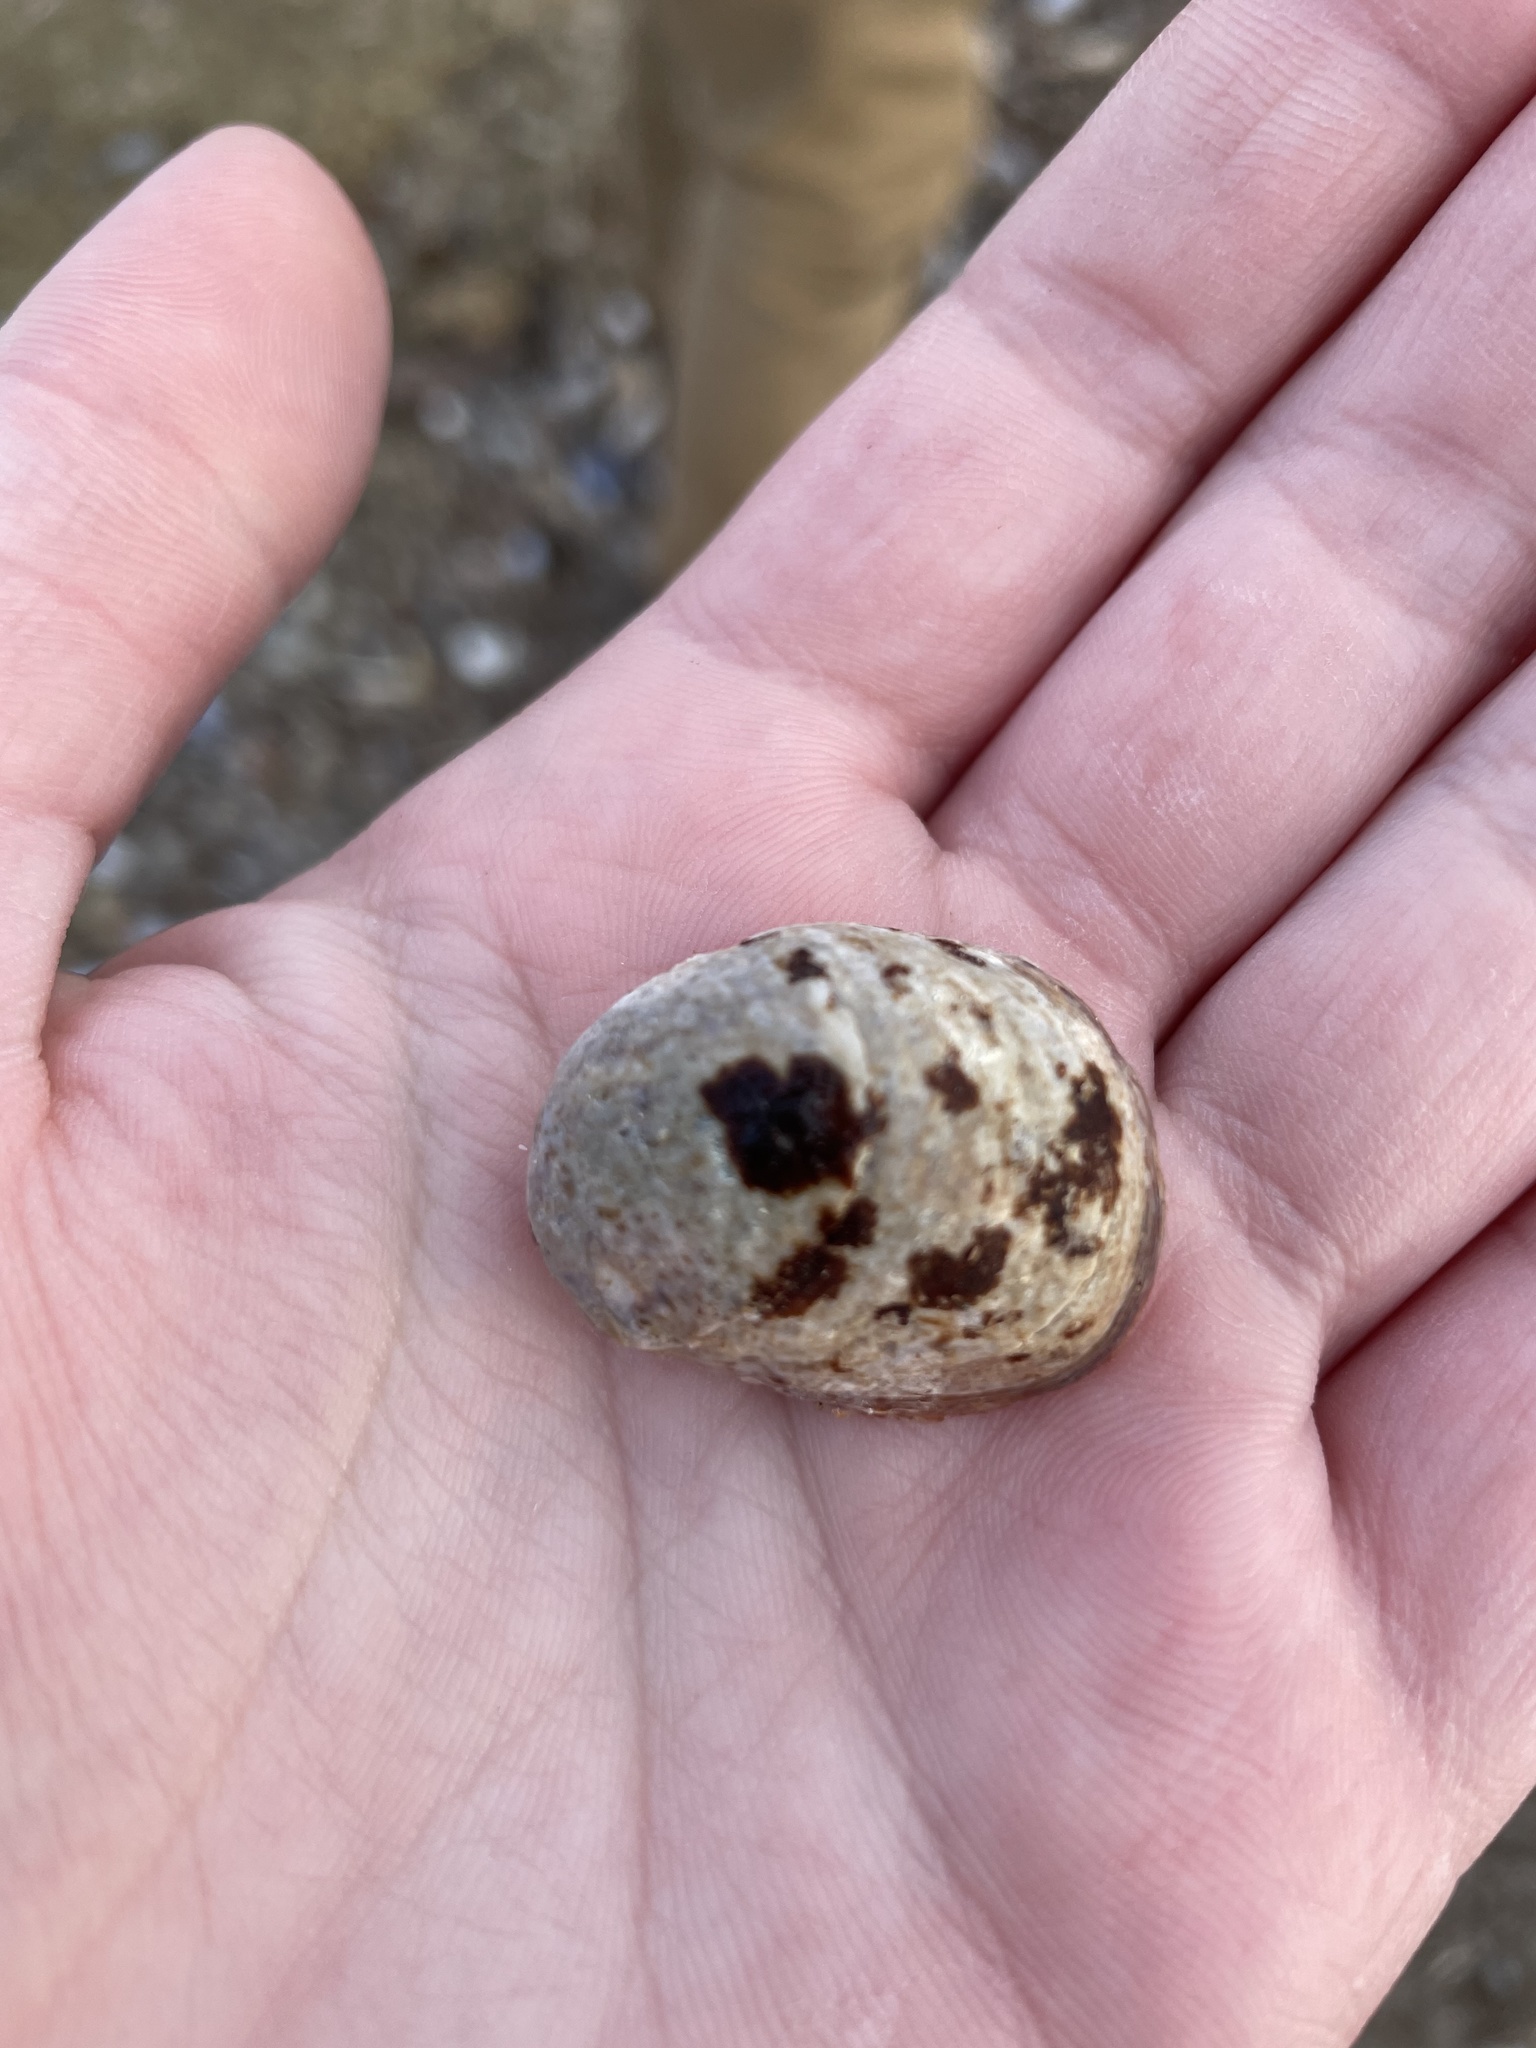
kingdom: Animalia
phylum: Mollusca
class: Gastropoda
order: Littorinimorpha
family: Calyptraeidae
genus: Crepidula
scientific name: Crepidula fornicata
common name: Slipper limpet
